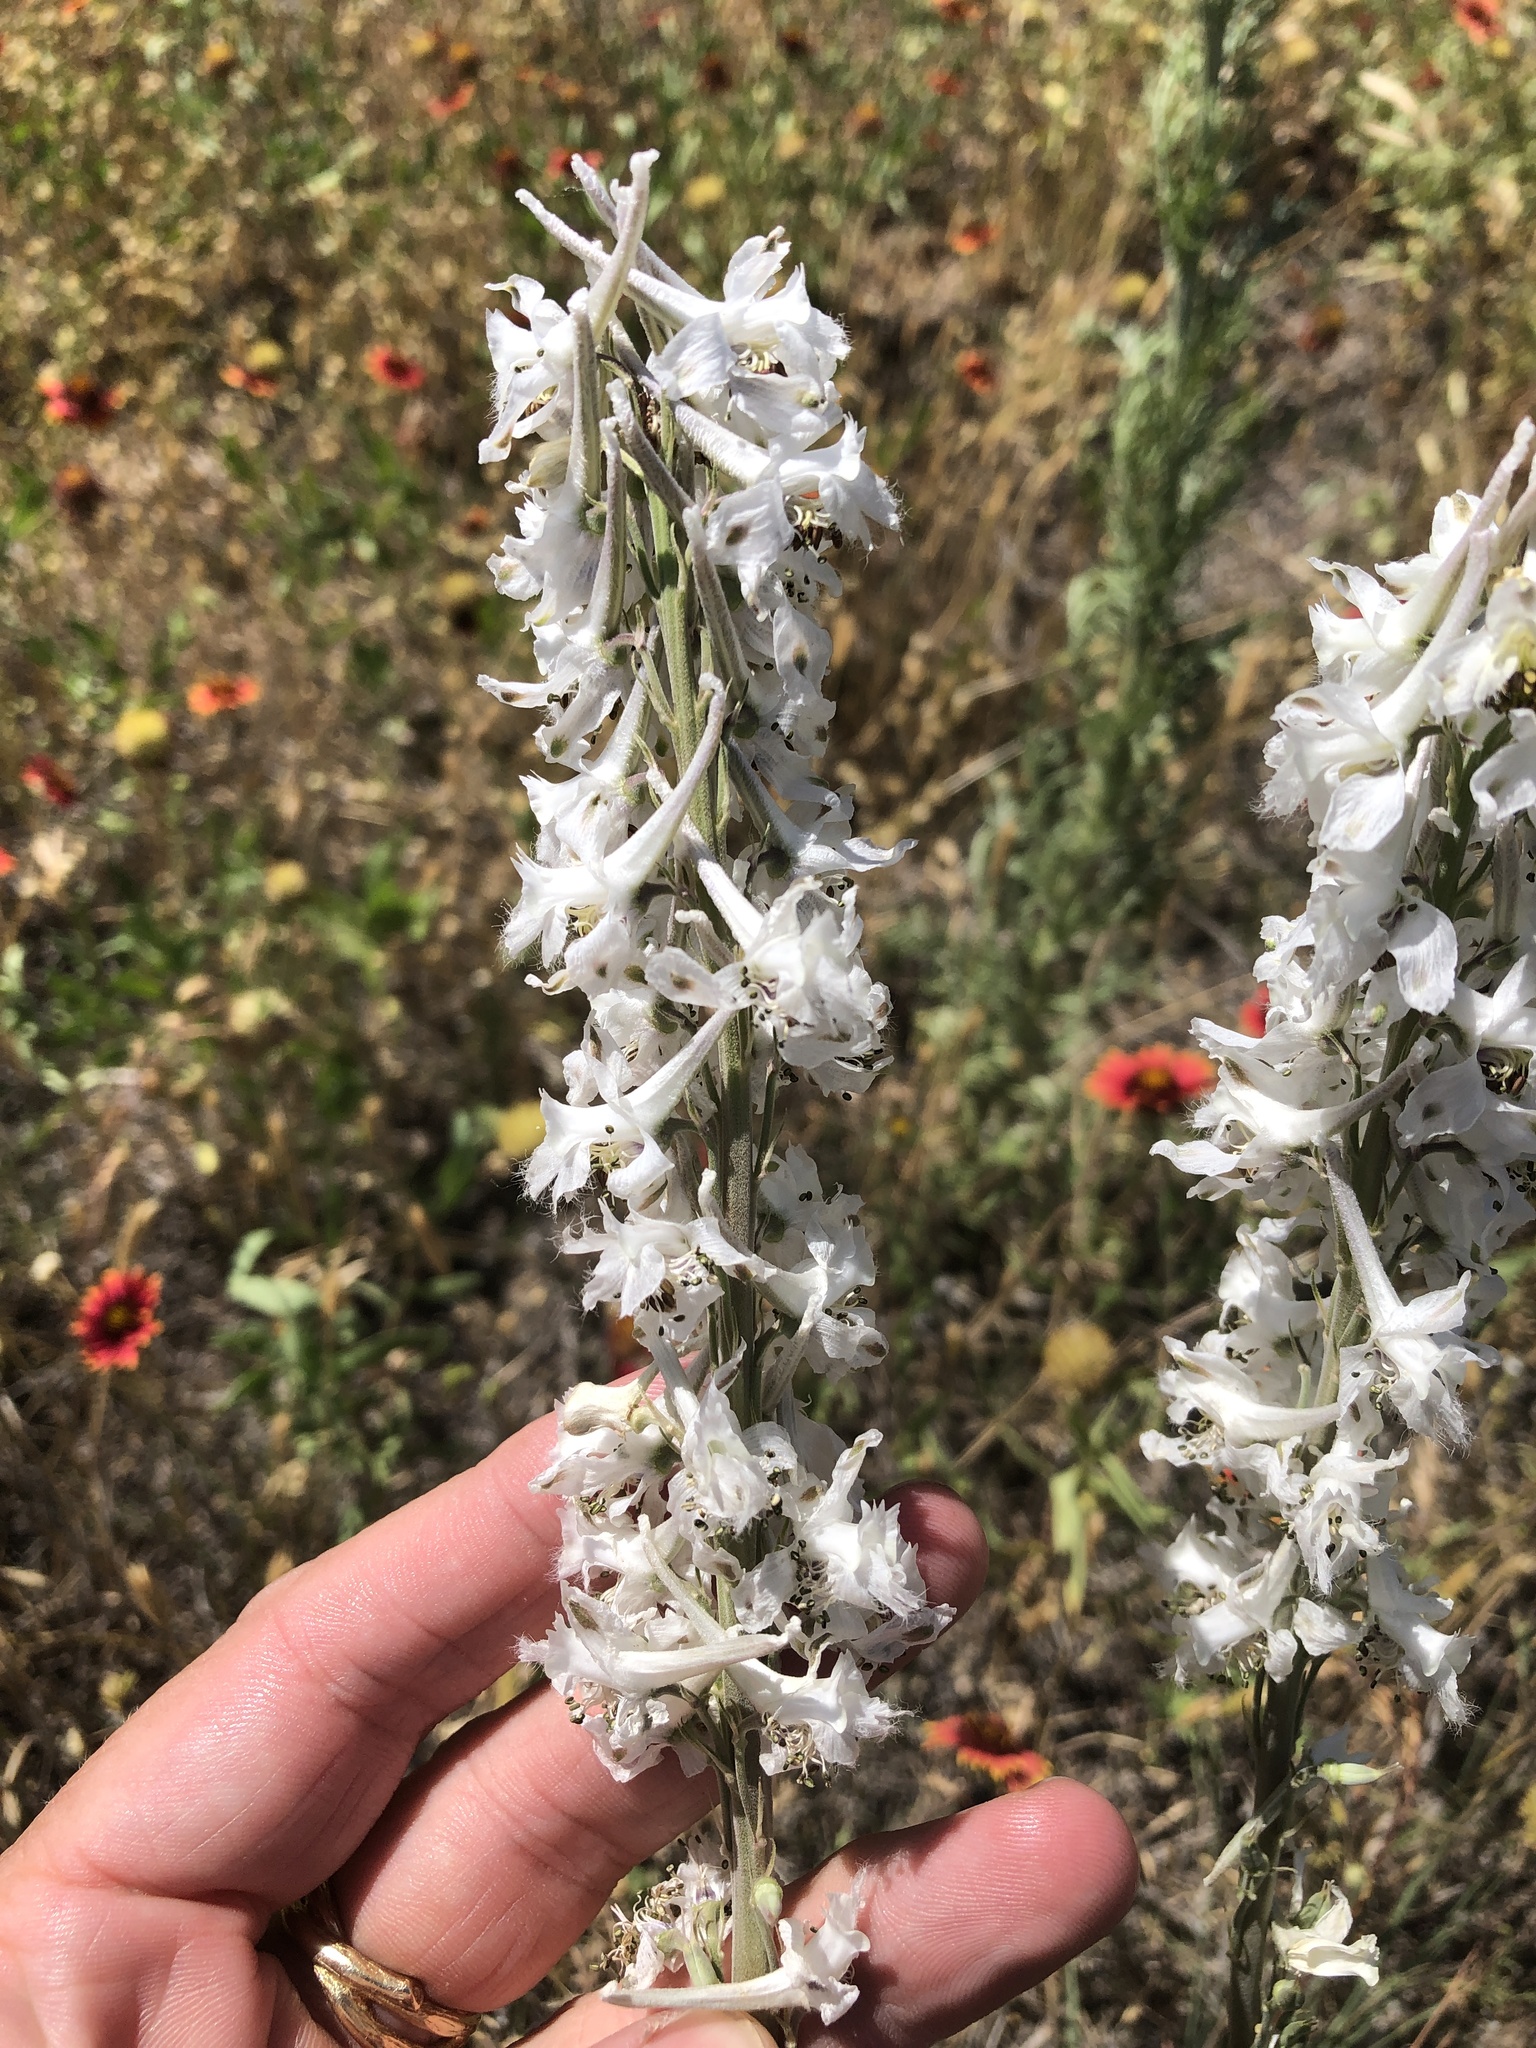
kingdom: Plantae
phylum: Tracheophyta
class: Magnoliopsida
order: Ranunculales
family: Ranunculaceae
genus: Delphinium
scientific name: Delphinium carolinianum
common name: Carolina larkspur
